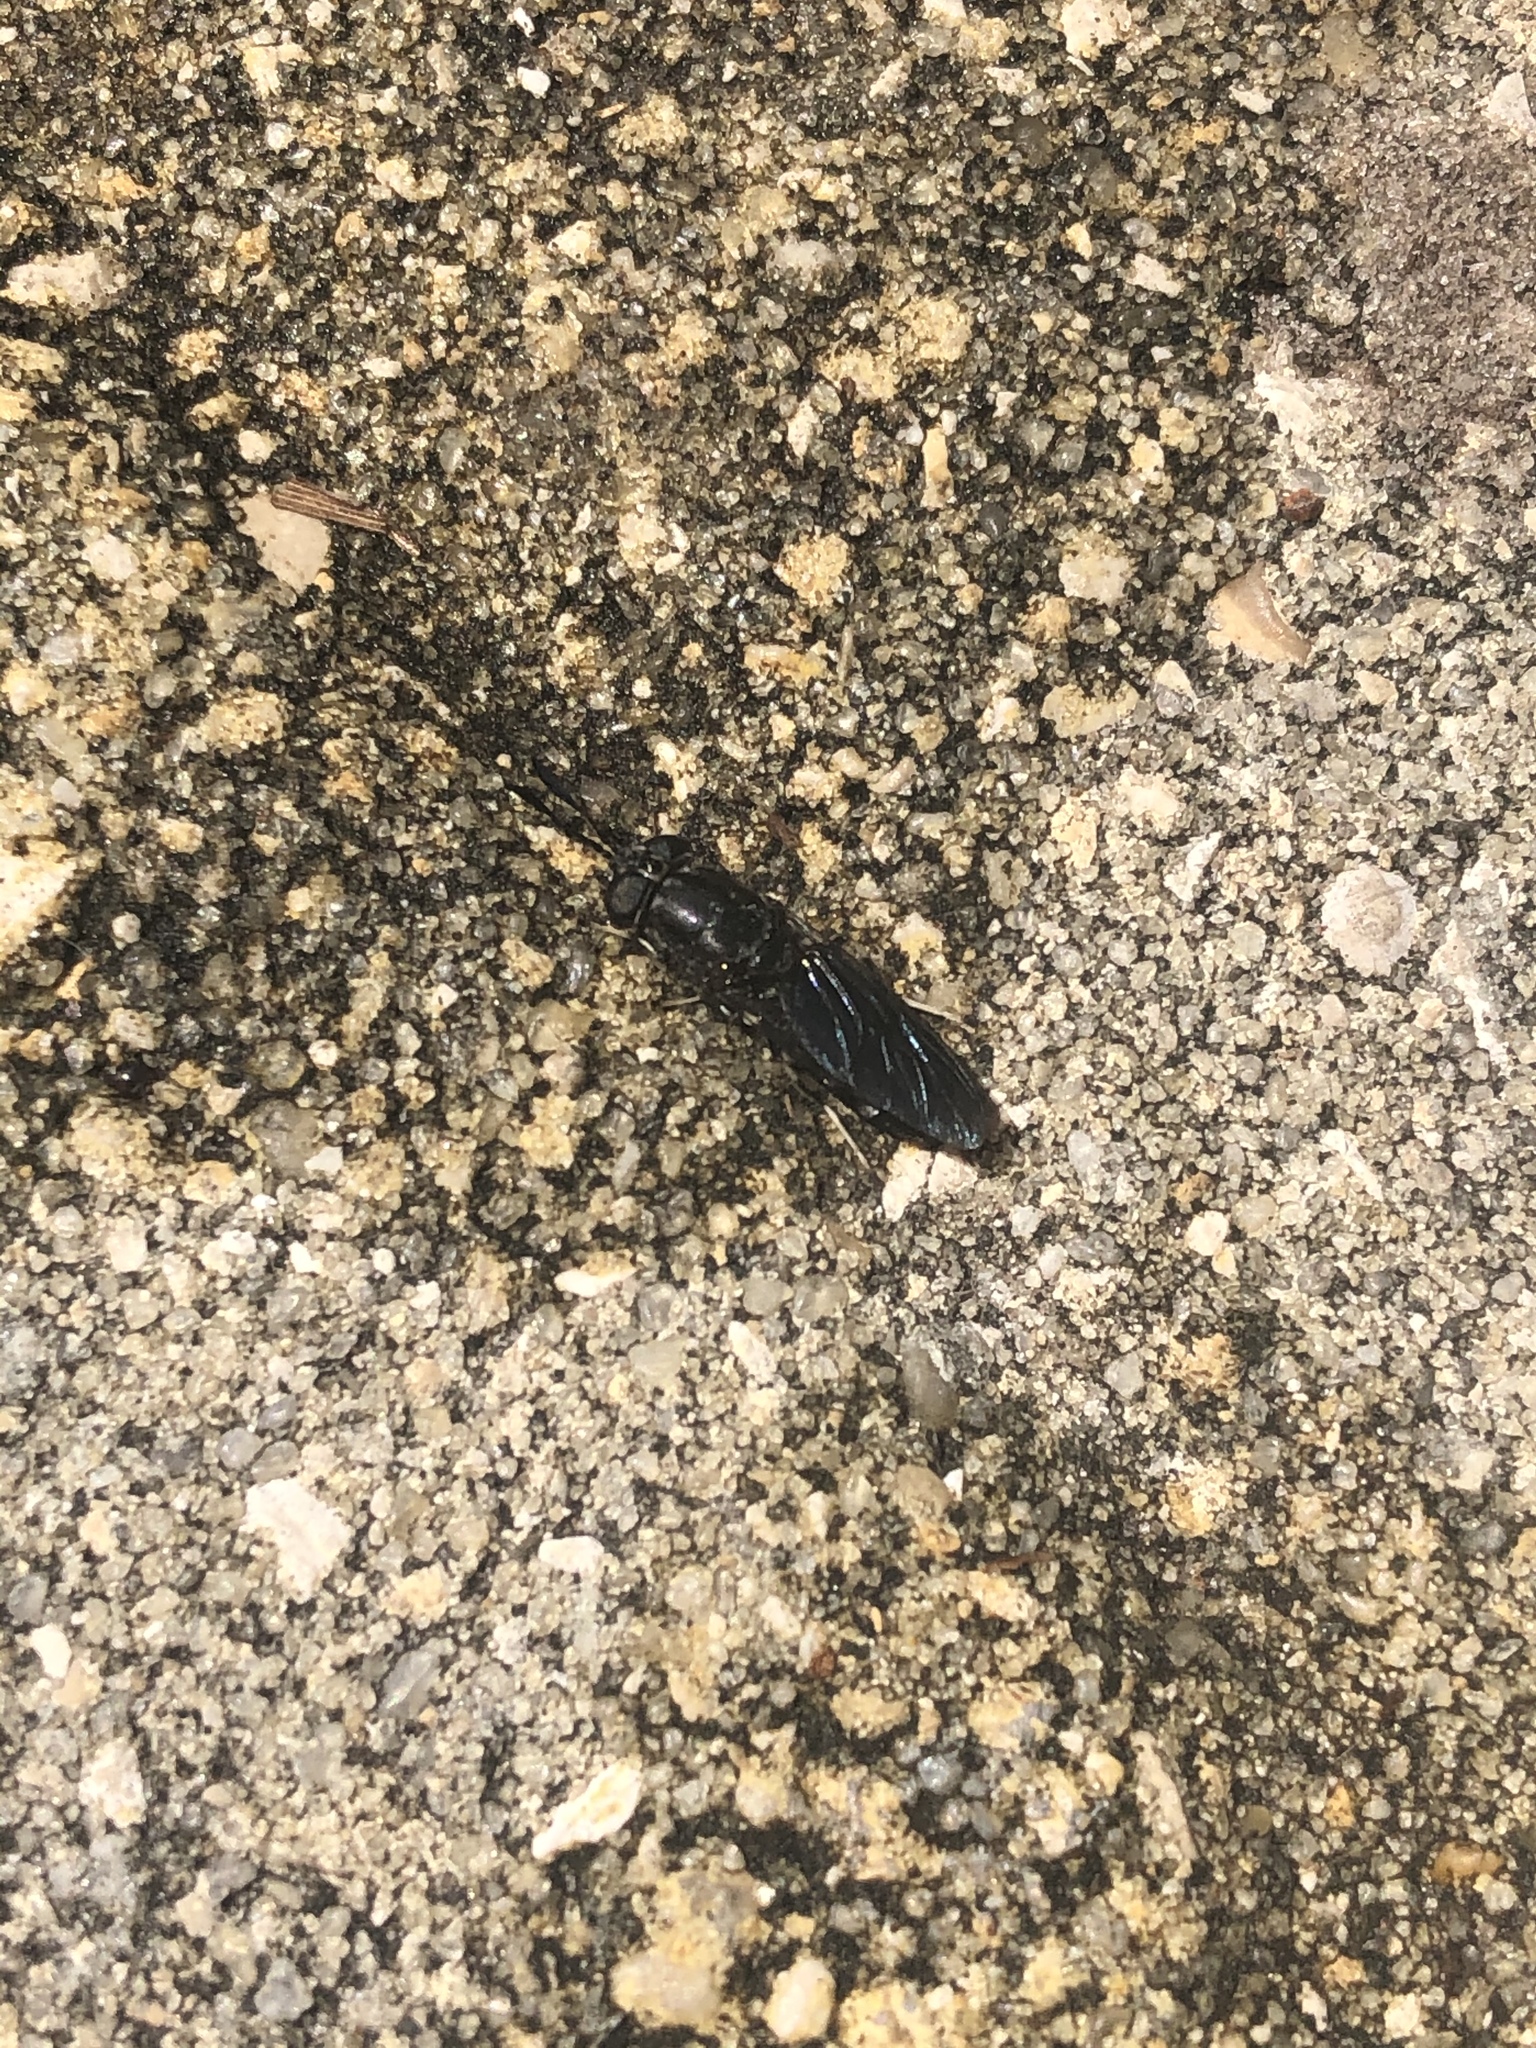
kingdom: Animalia
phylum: Arthropoda
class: Insecta
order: Diptera
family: Stratiomyidae
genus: Hermetia
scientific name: Hermetia sexmaculata
